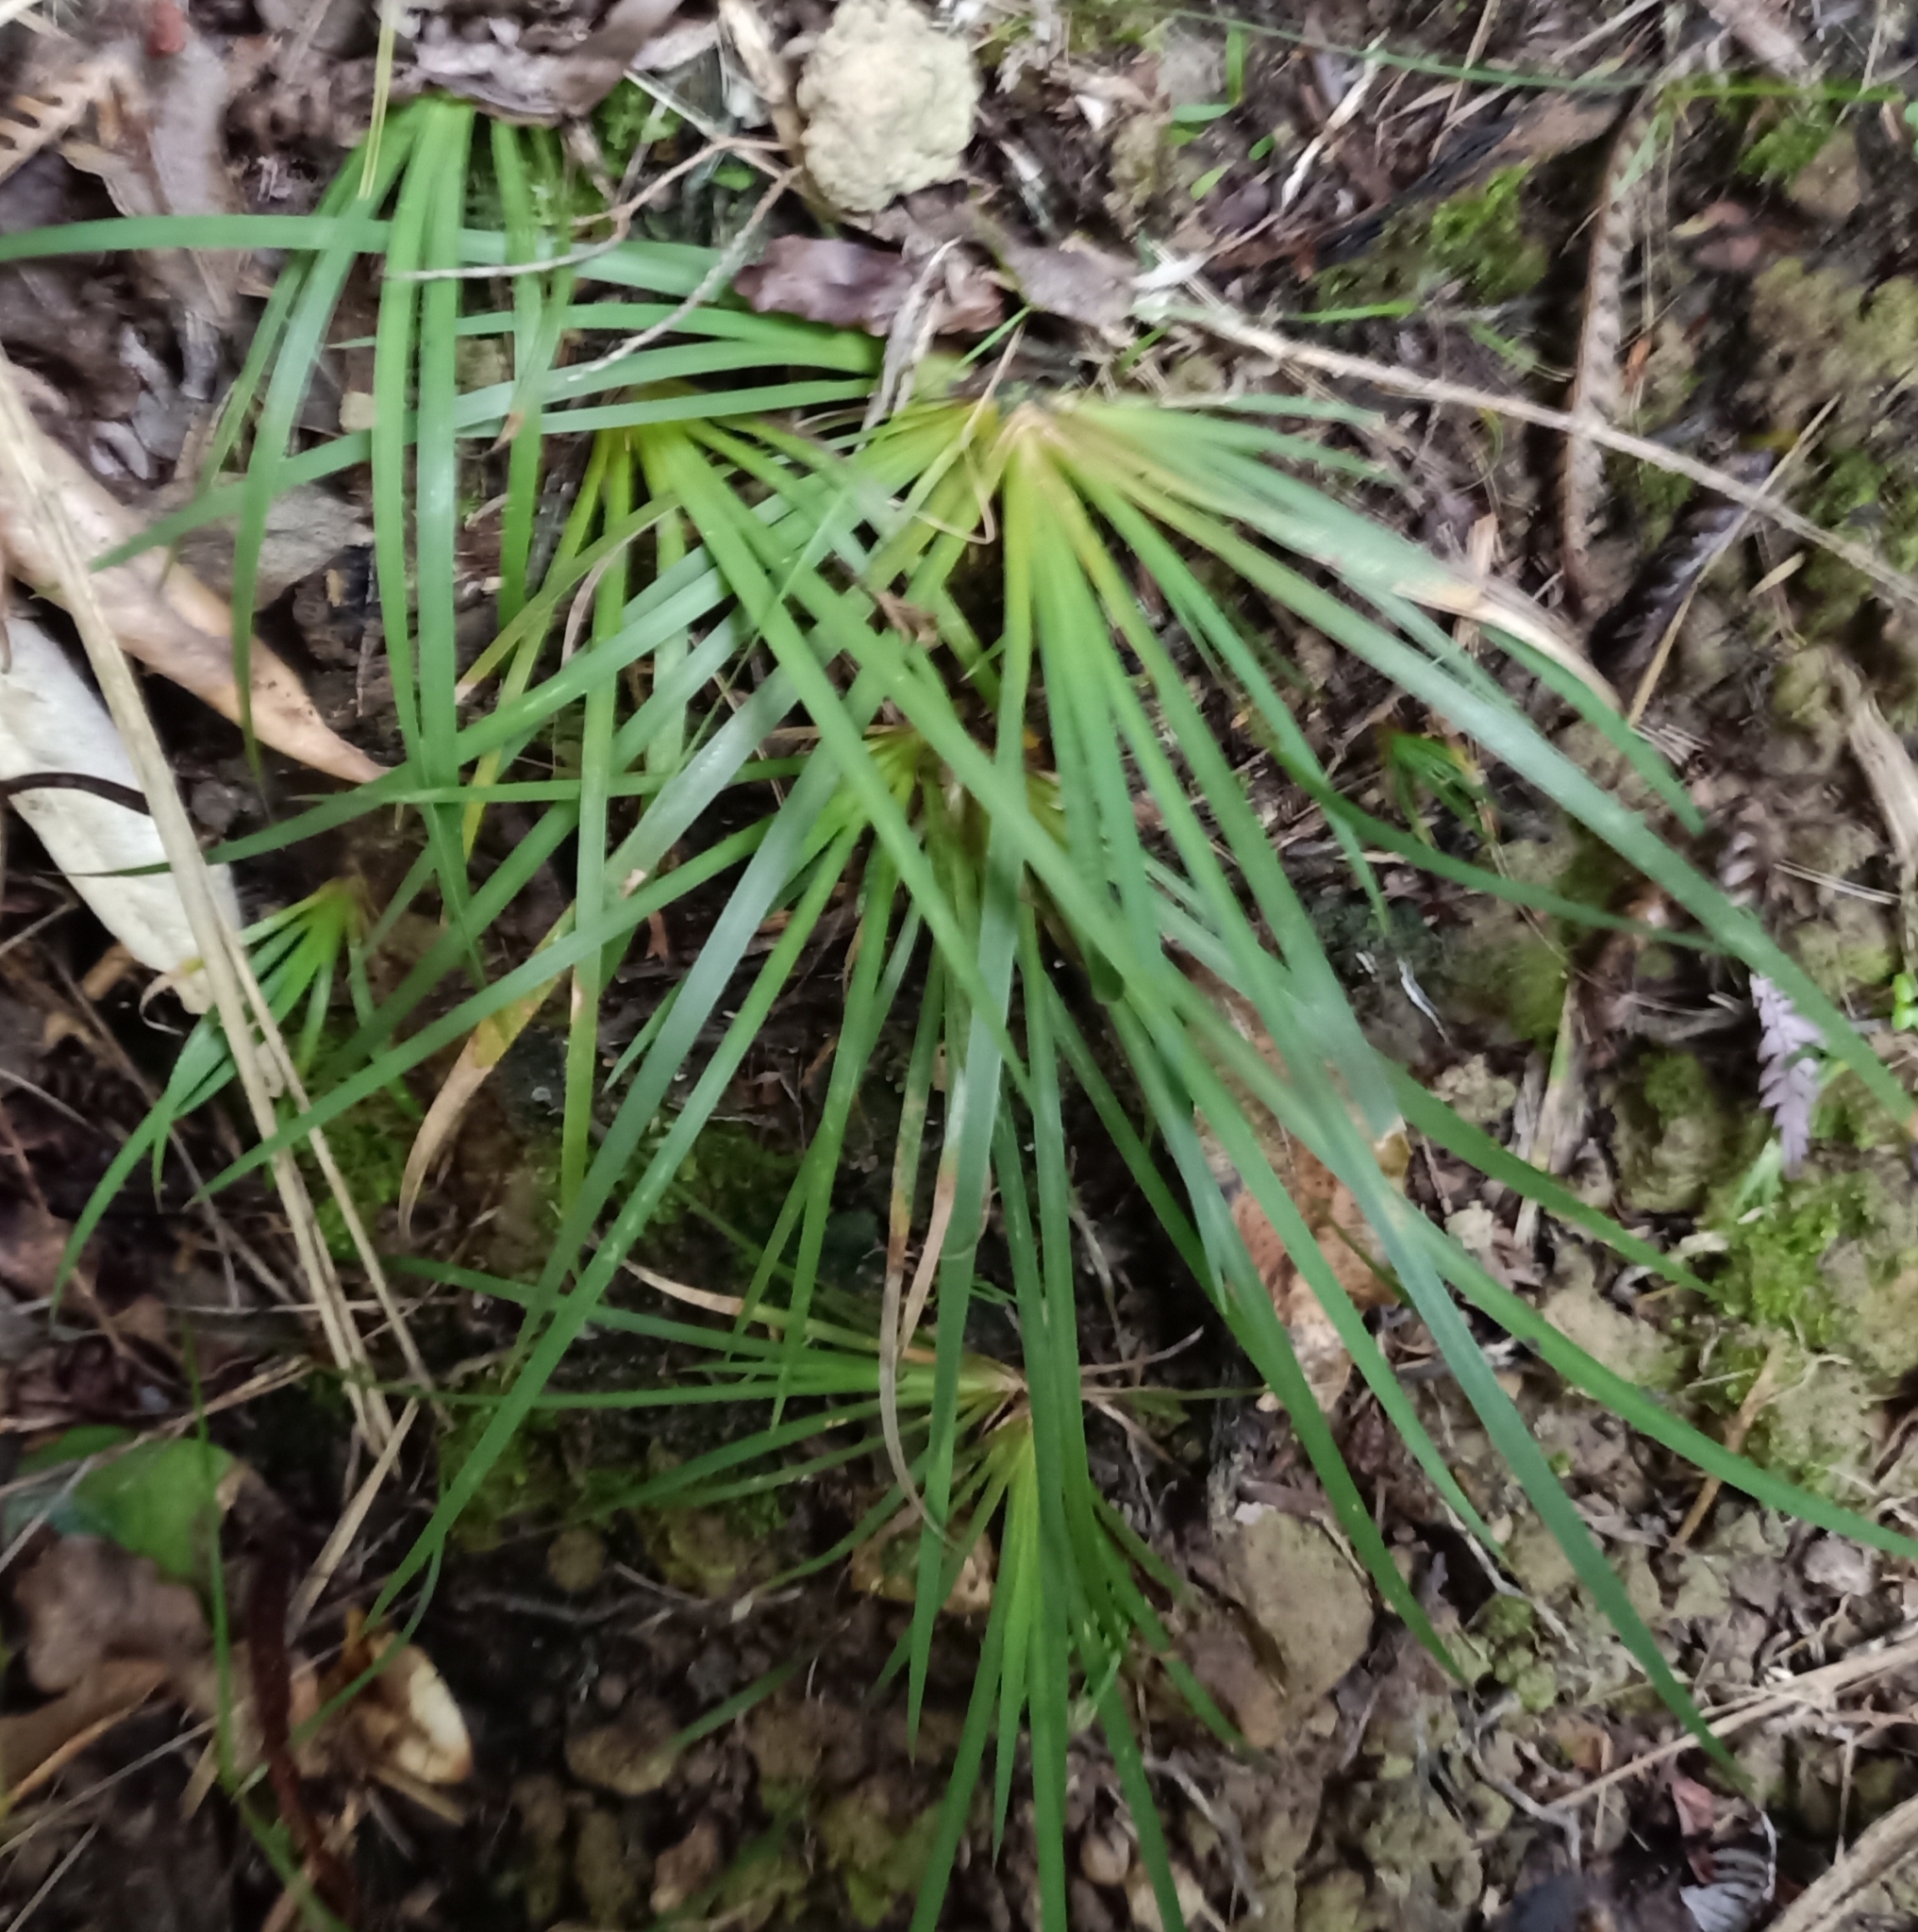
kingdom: Plantae
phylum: Tracheophyta
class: Liliopsida
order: Asparagales
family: Iridaceae
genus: Libertia
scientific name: Libertia micrantha
